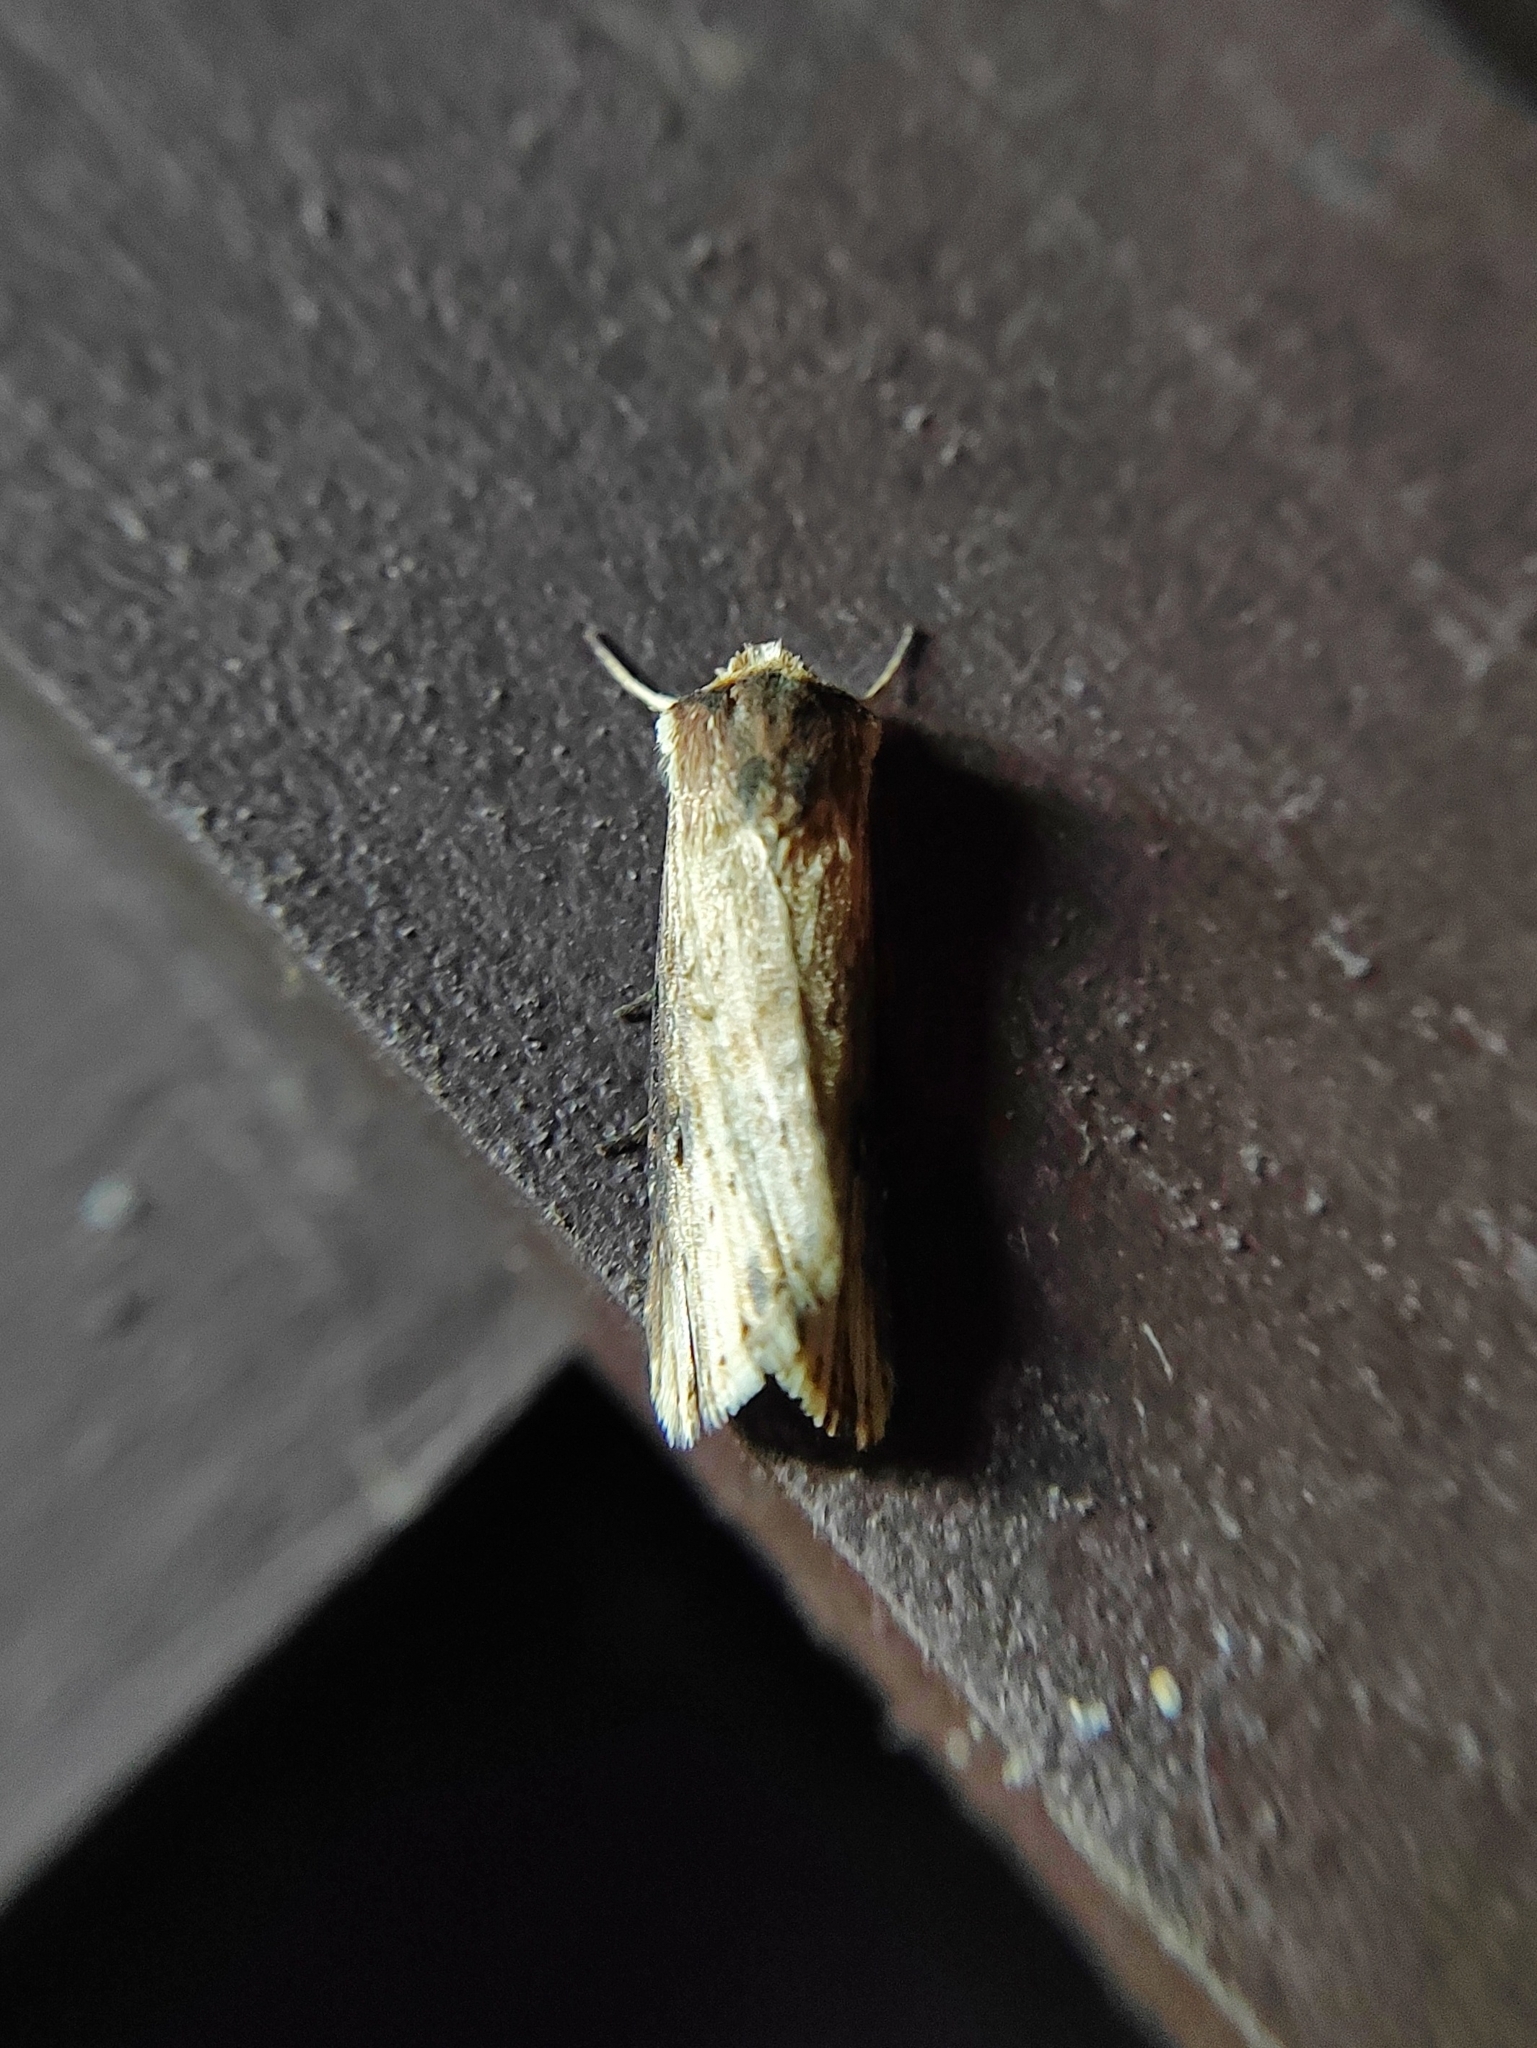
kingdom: Animalia
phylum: Arthropoda
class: Insecta
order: Lepidoptera
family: Noctuidae
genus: Axylia
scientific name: Axylia putris
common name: Flame
